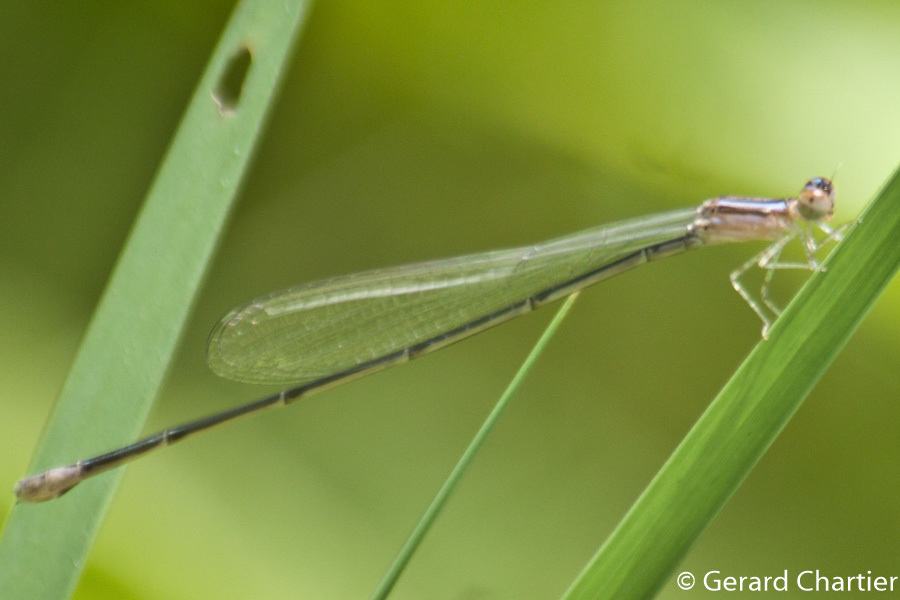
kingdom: Animalia
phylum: Arthropoda
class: Insecta
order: Odonata
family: Coenagrionidae
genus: Aciagrion
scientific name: Aciagrion hisopa
